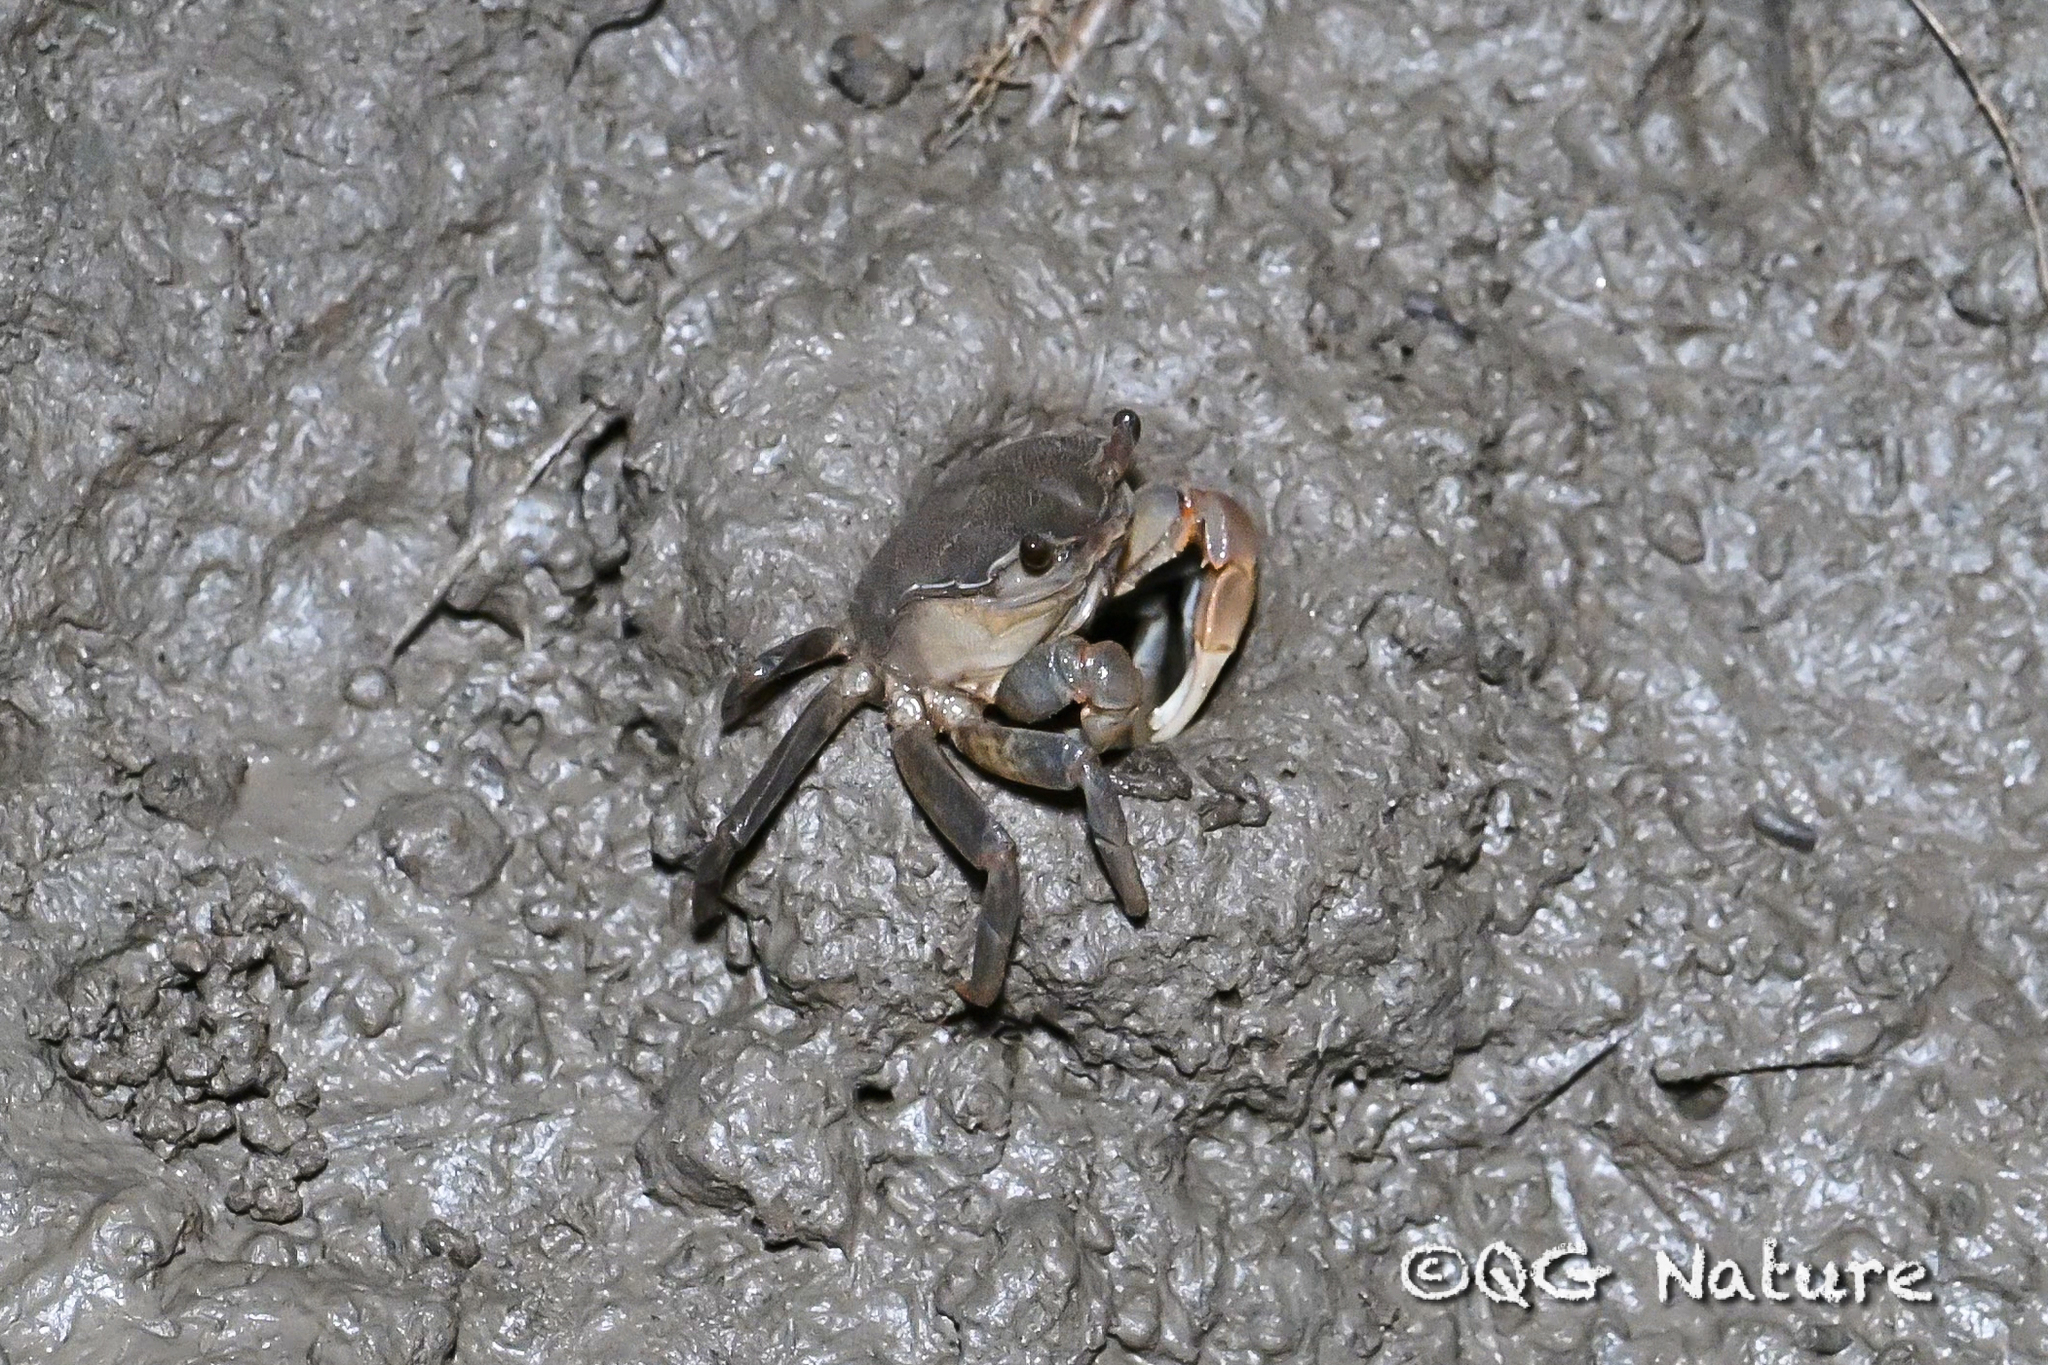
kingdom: Animalia
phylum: Arthropoda
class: Malacostraca
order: Decapoda
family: Varunidae
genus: Helice
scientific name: Helice tientsinensis
